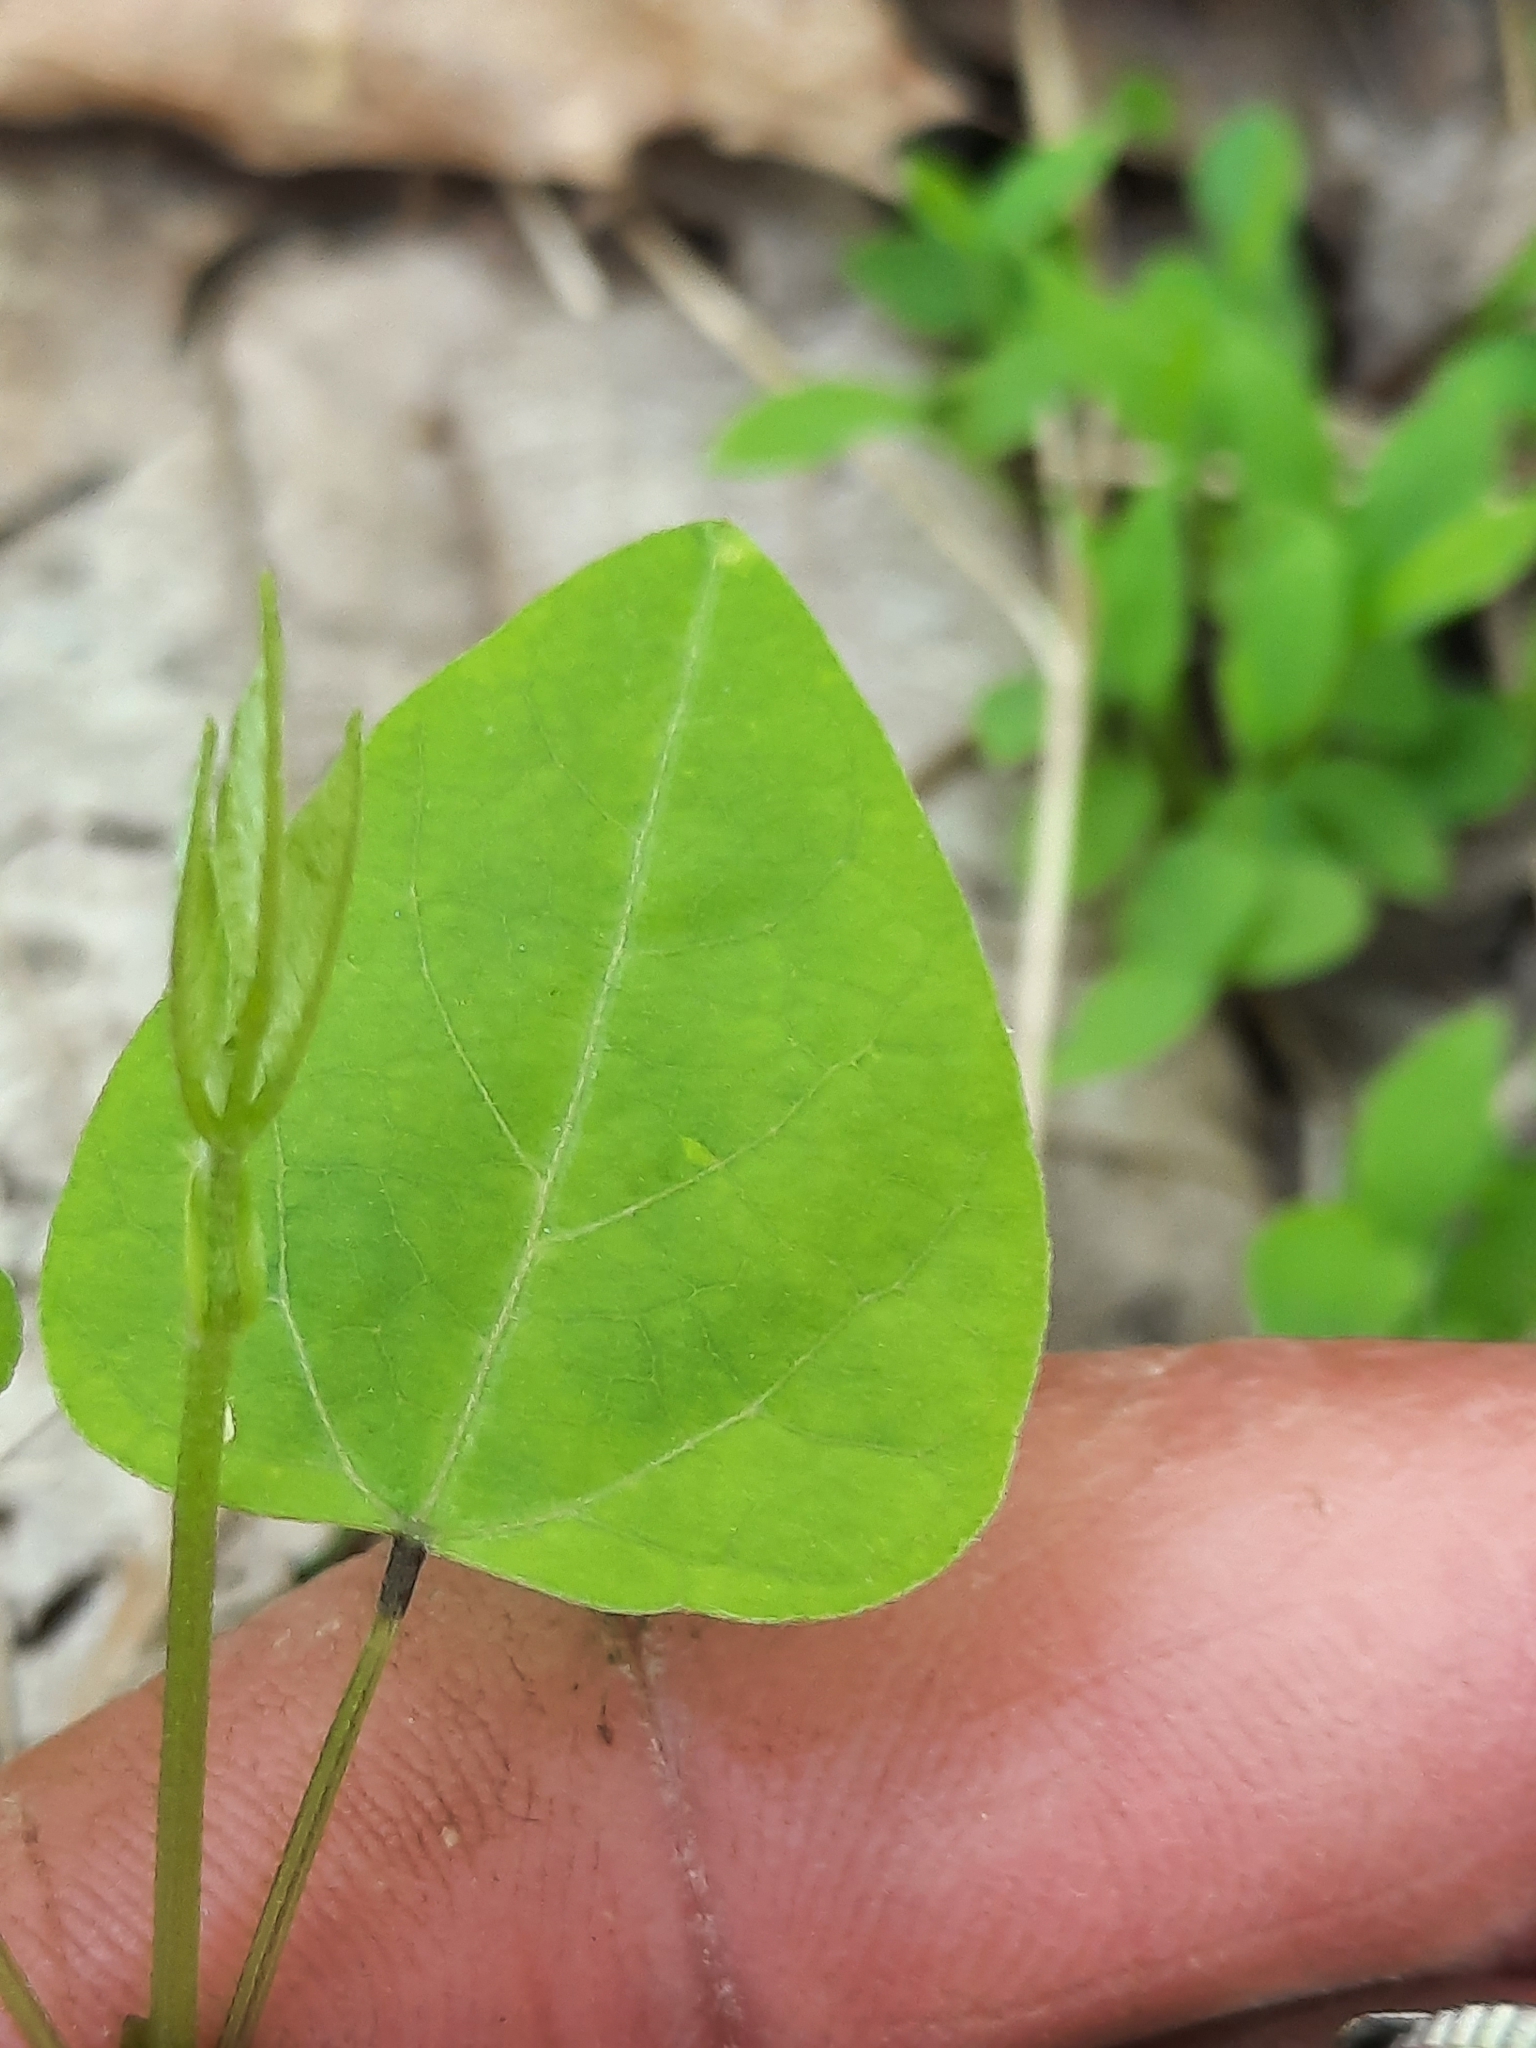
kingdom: Plantae
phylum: Tracheophyta
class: Magnoliopsida
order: Fabales
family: Fabaceae
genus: Amphicarpaea
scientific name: Amphicarpaea bracteata
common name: American hog peanut
